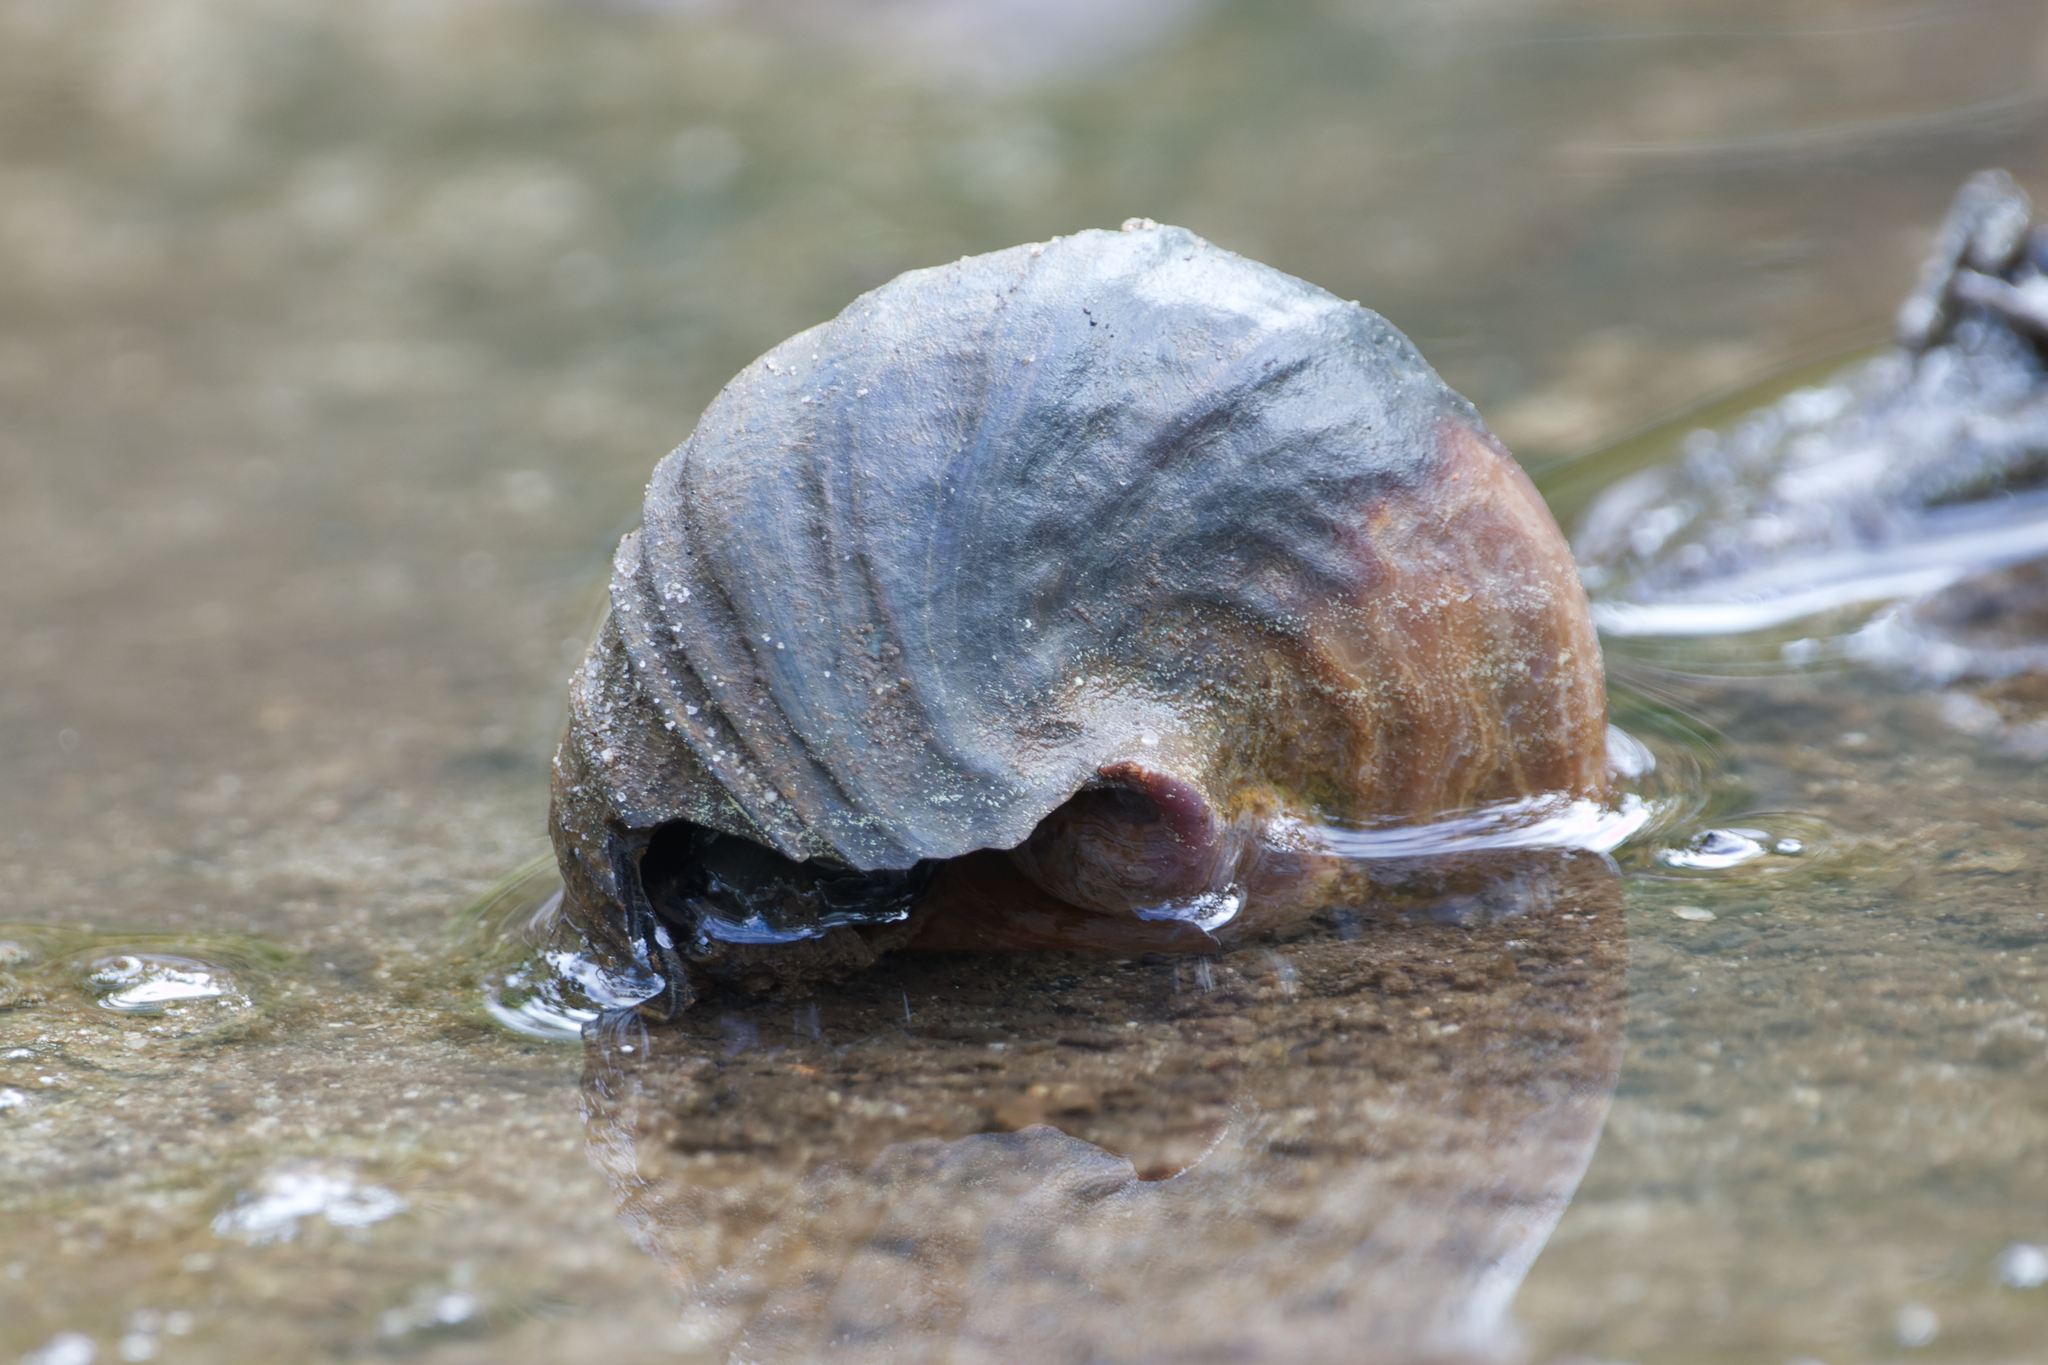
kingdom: Animalia
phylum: Mollusca
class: Gastropoda
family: Potamididae
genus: Telescopium
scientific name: Telescopium telescopium
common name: Telescope creeper
